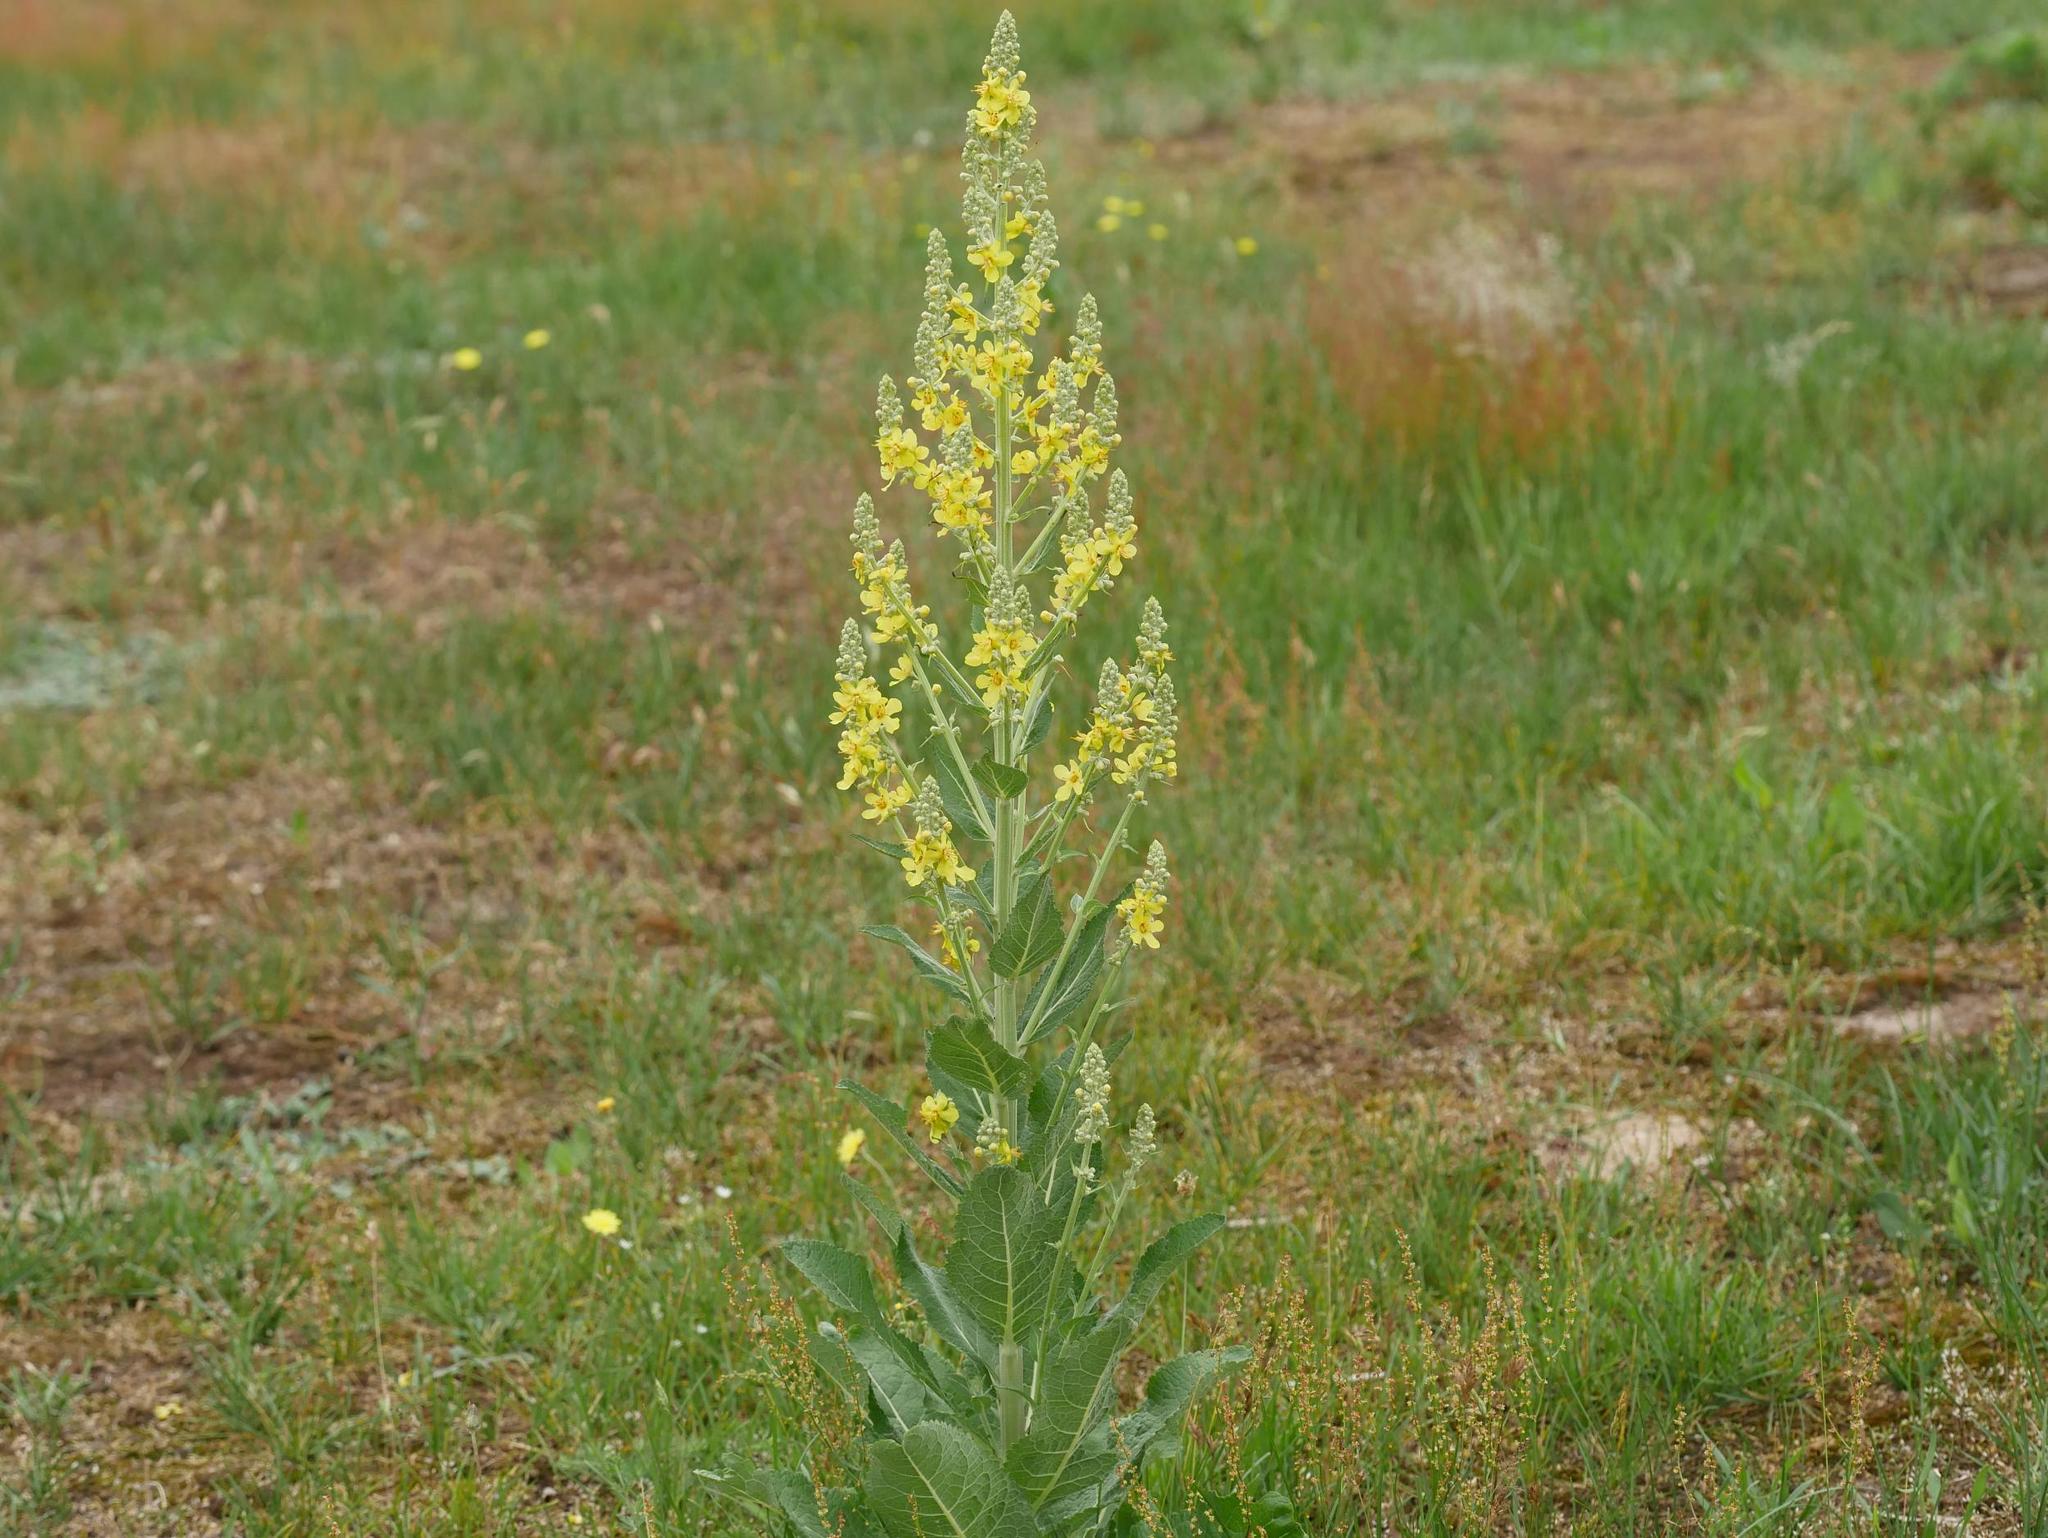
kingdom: Plantae
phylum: Tracheophyta
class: Magnoliopsida
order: Lamiales
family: Scrophulariaceae
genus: Verbascum
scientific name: Verbascum lychnitis
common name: White mullein
